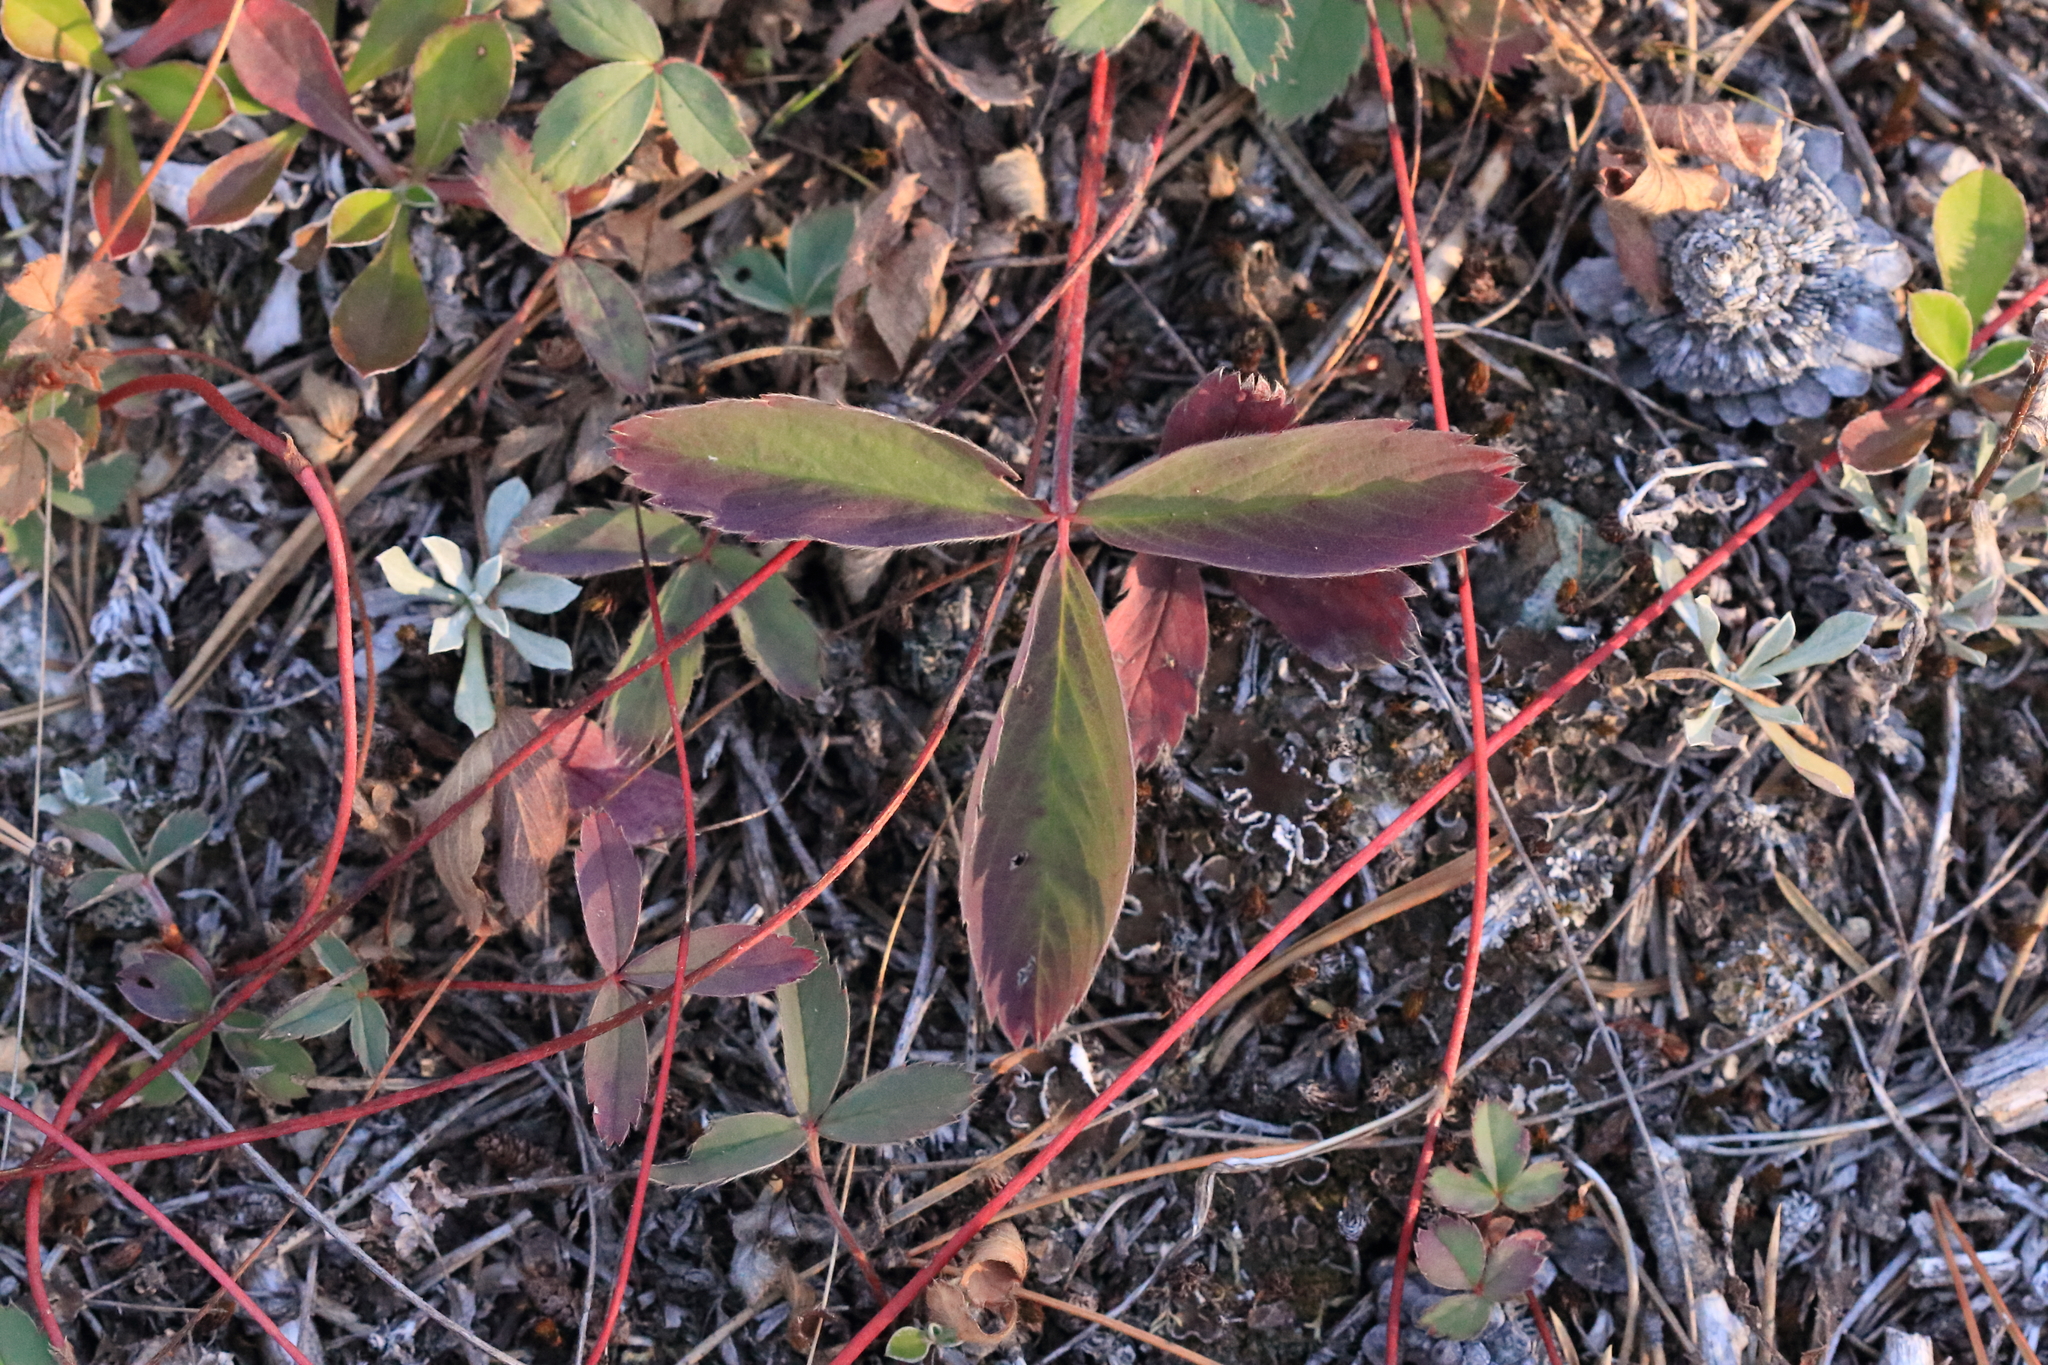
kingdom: Plantae
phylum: Tracheophyta
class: Magnoliopsida
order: Rosales
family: Rosaceae
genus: Fragaria
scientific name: Fragaria virginiana
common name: Thickleaved wild strawberry
